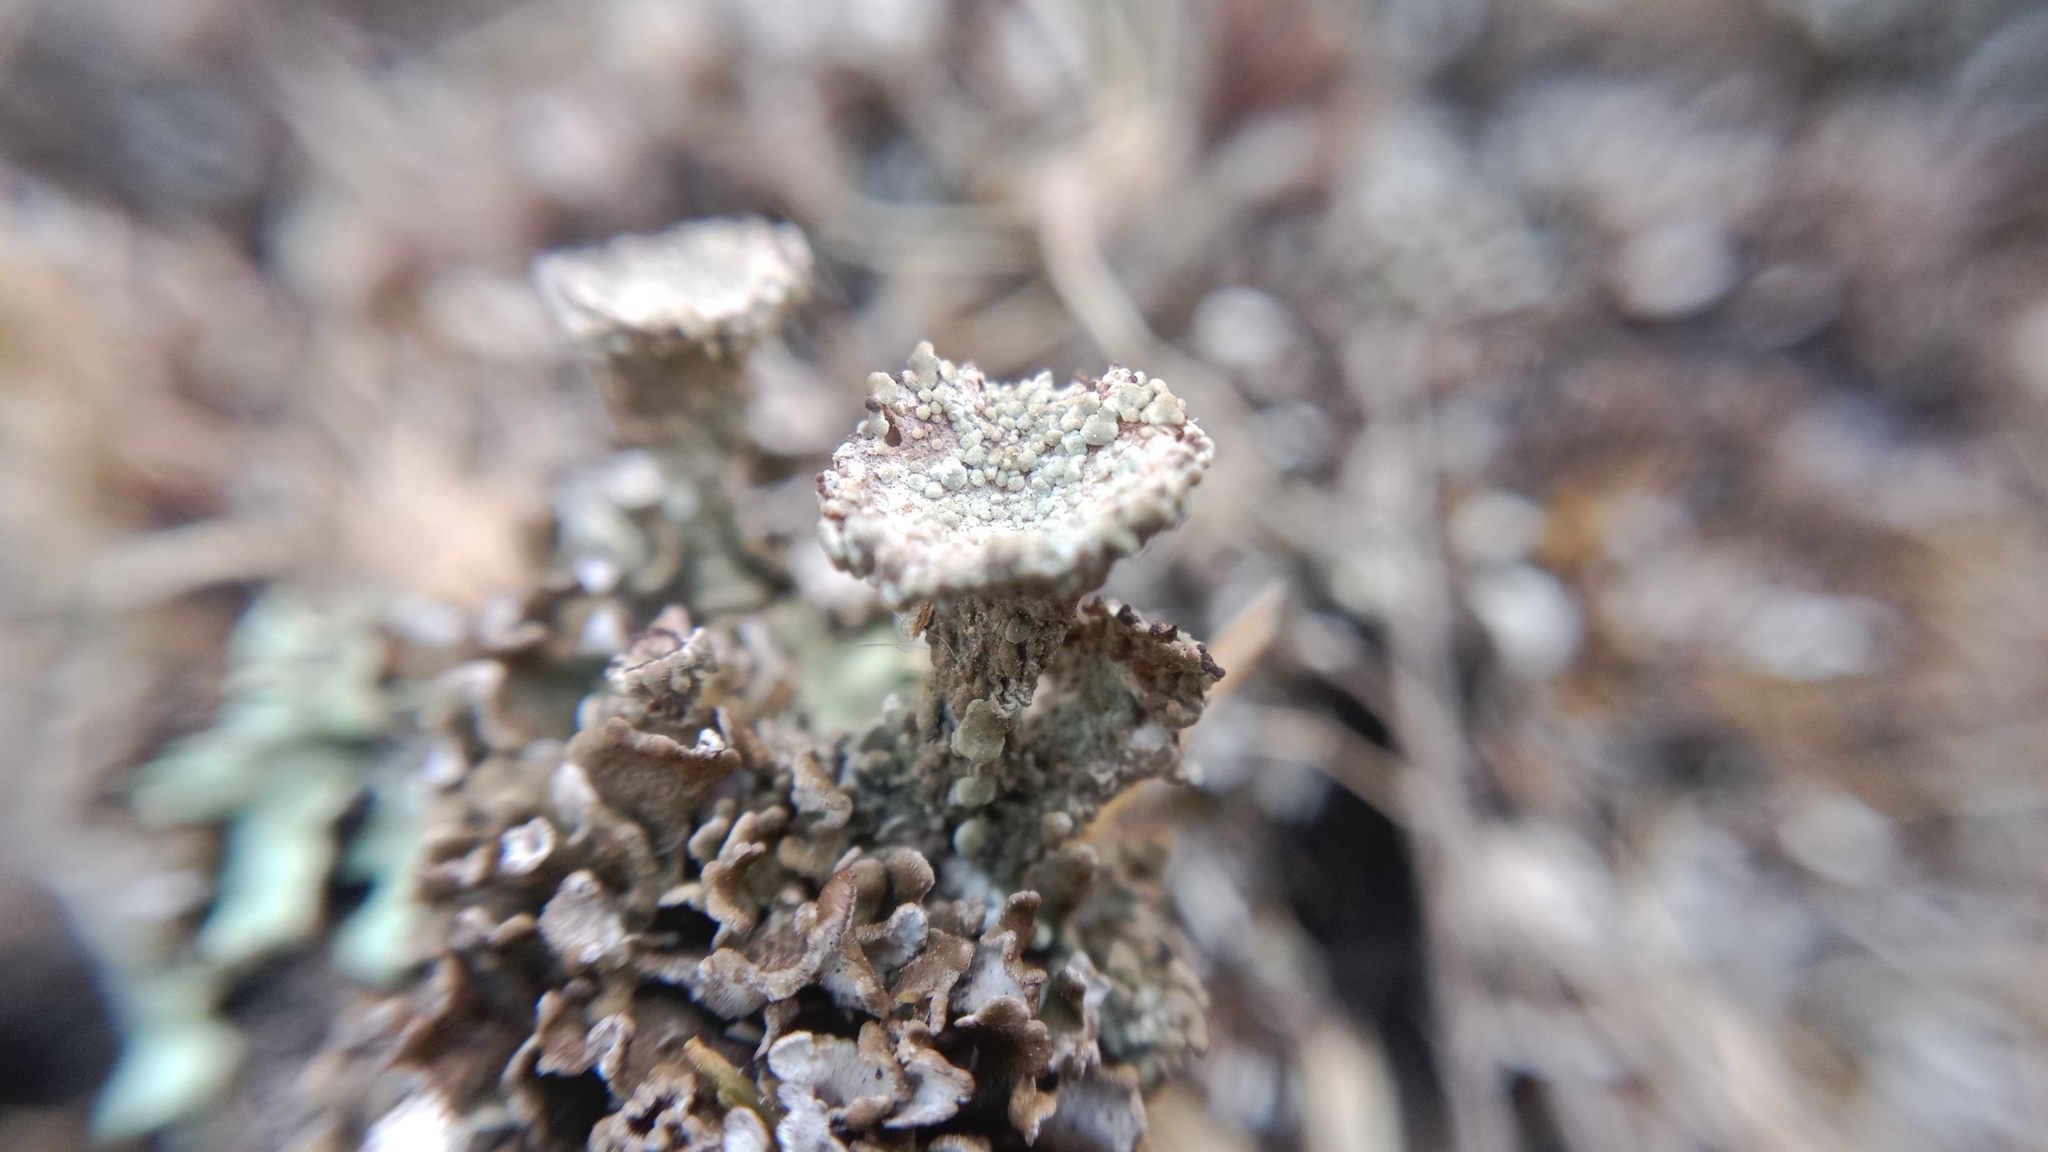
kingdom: Fungi
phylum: Ascomycota
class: Lecanoromycetes
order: Lecanorales
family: Cladoniaceae
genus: Cladonia
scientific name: Cladonia pyxidata
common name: Pebbled pixie cup
